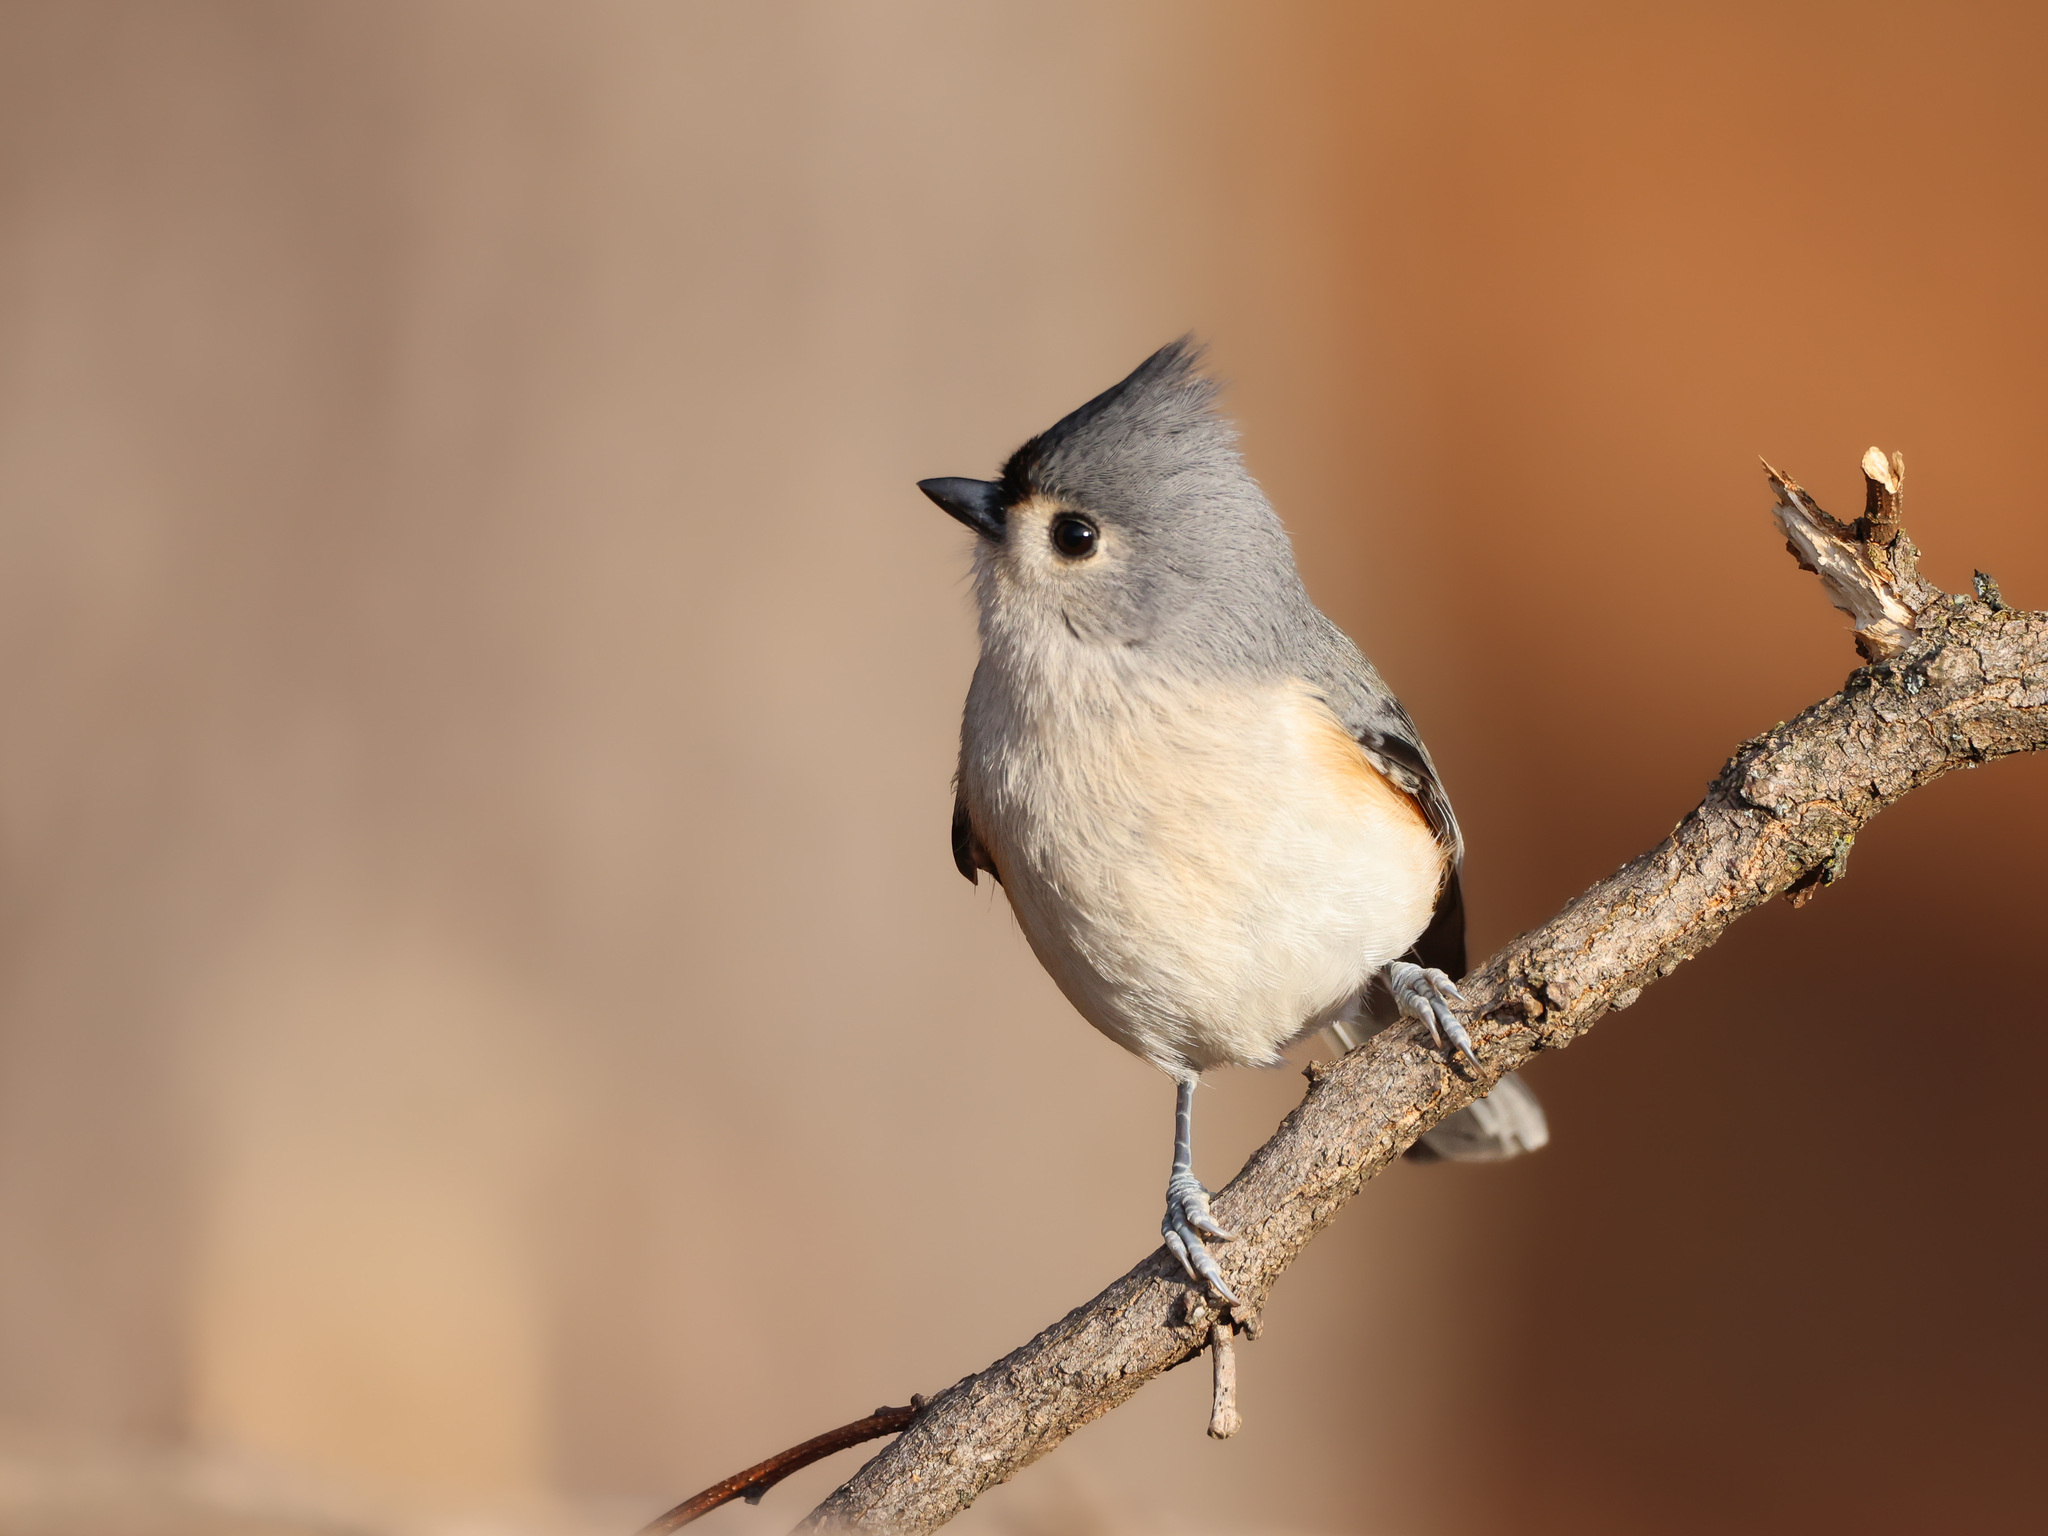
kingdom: Animalia
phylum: Chordata
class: Aves
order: Passeriformes
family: Paridae
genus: Baeolophus
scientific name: Baeolophus bicolor
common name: Tufted titmouse
